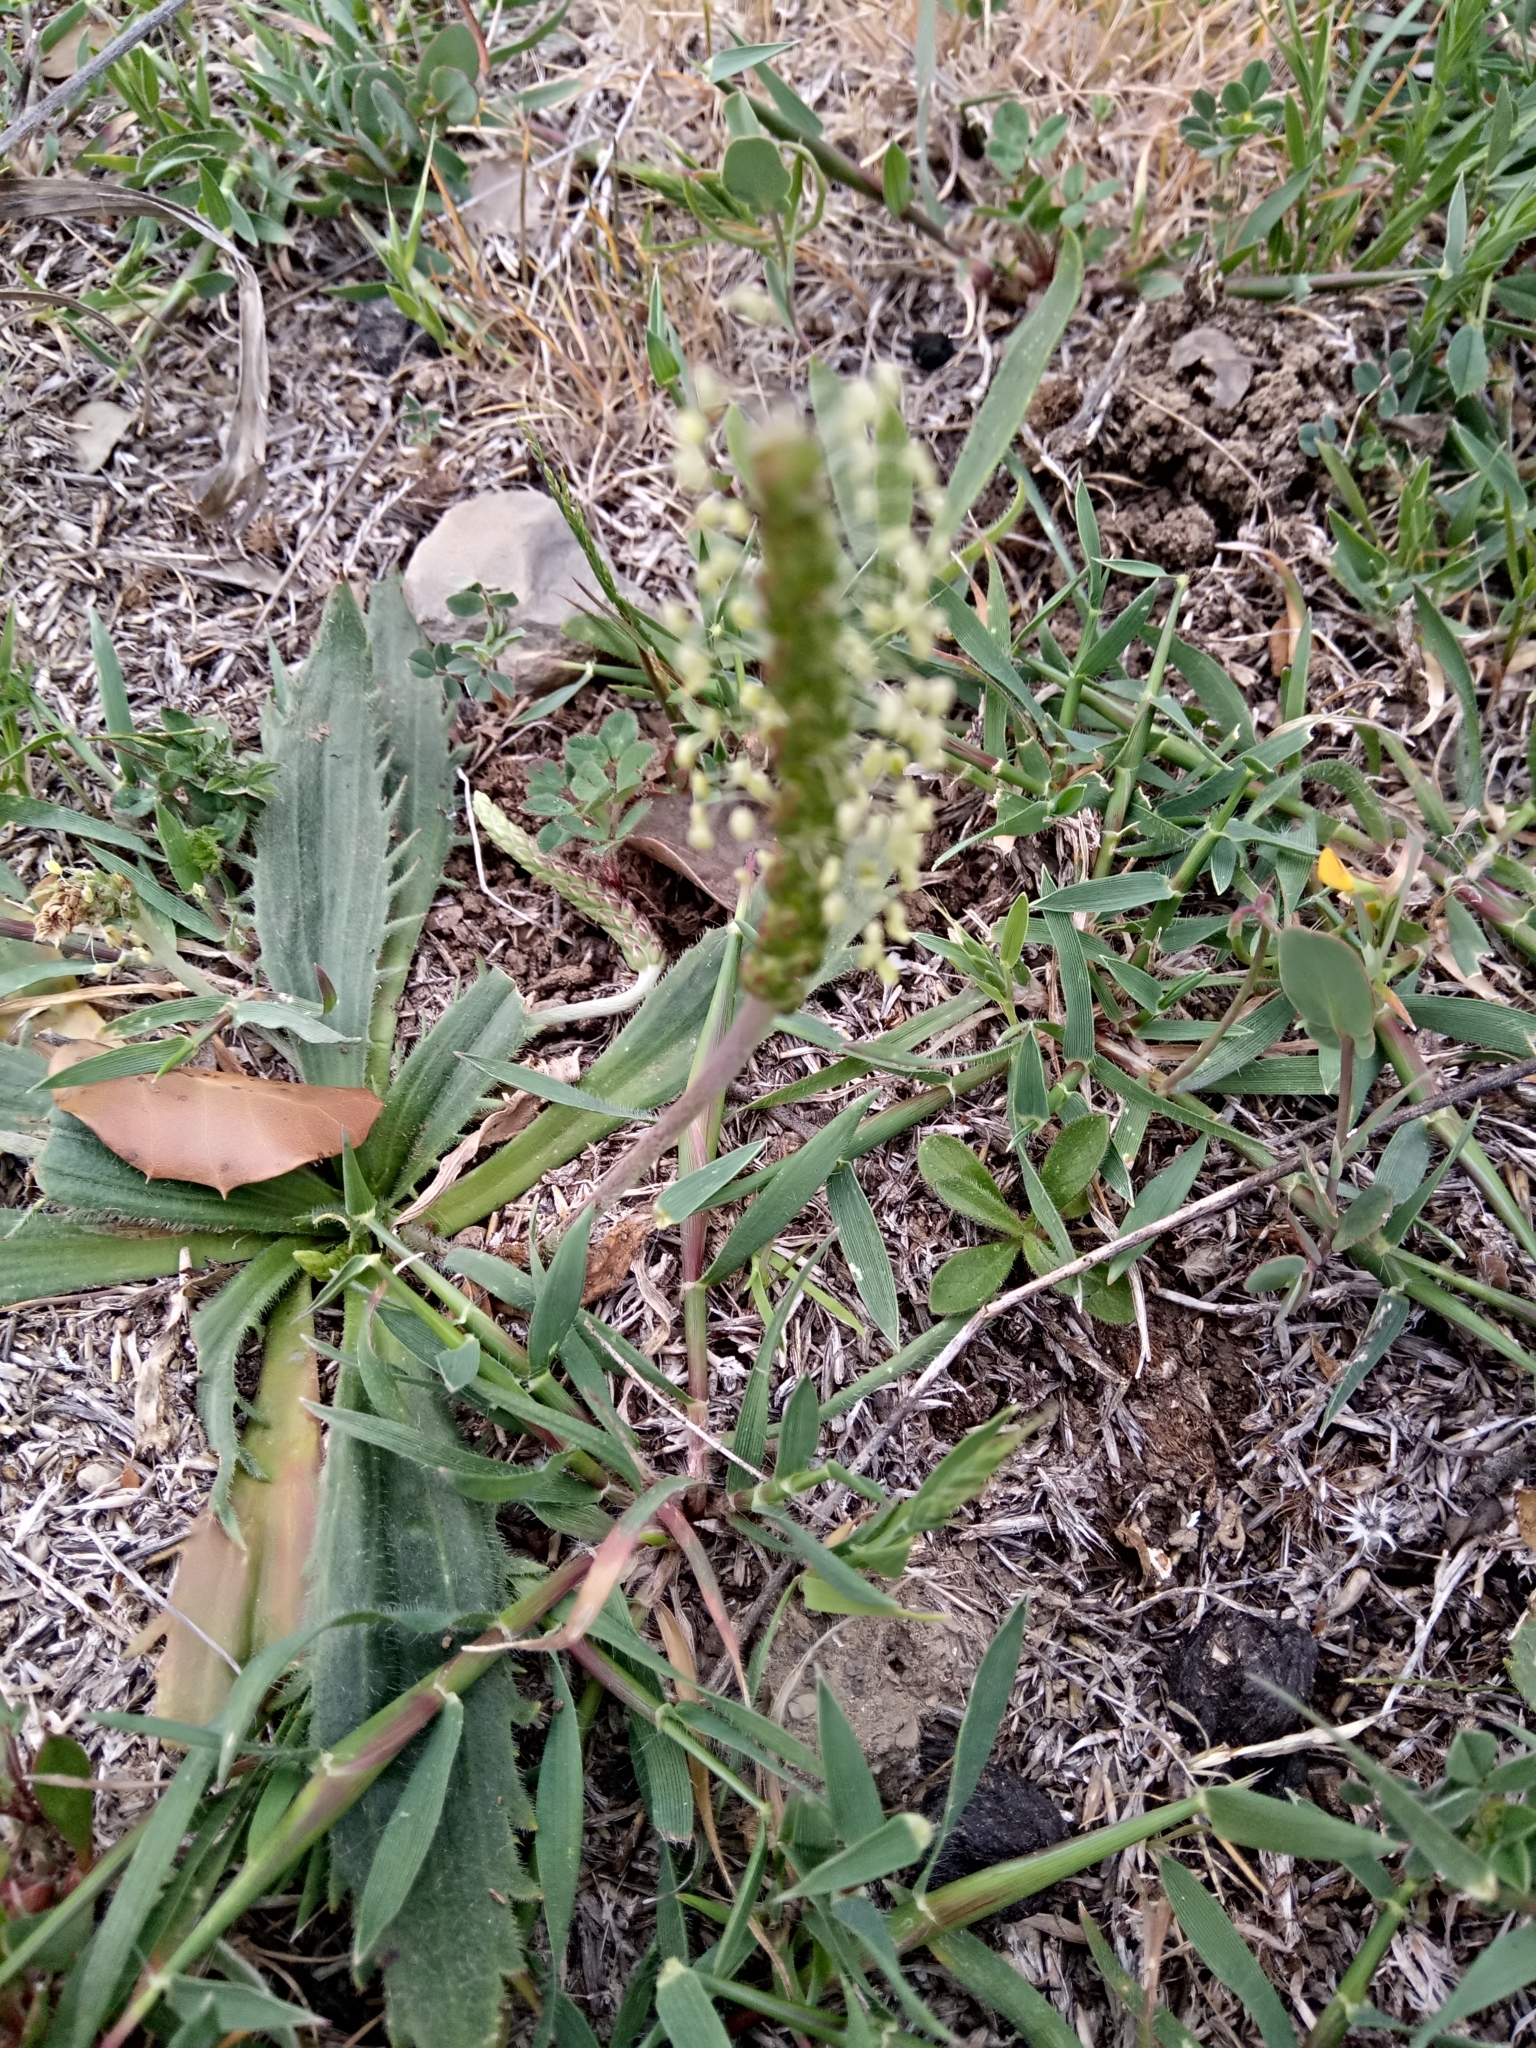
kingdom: Plantae
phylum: Tracheophyta
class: Magnoliopsida
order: Lamiales
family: Plantaginaceae
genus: Plantago
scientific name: Plantago serraria
